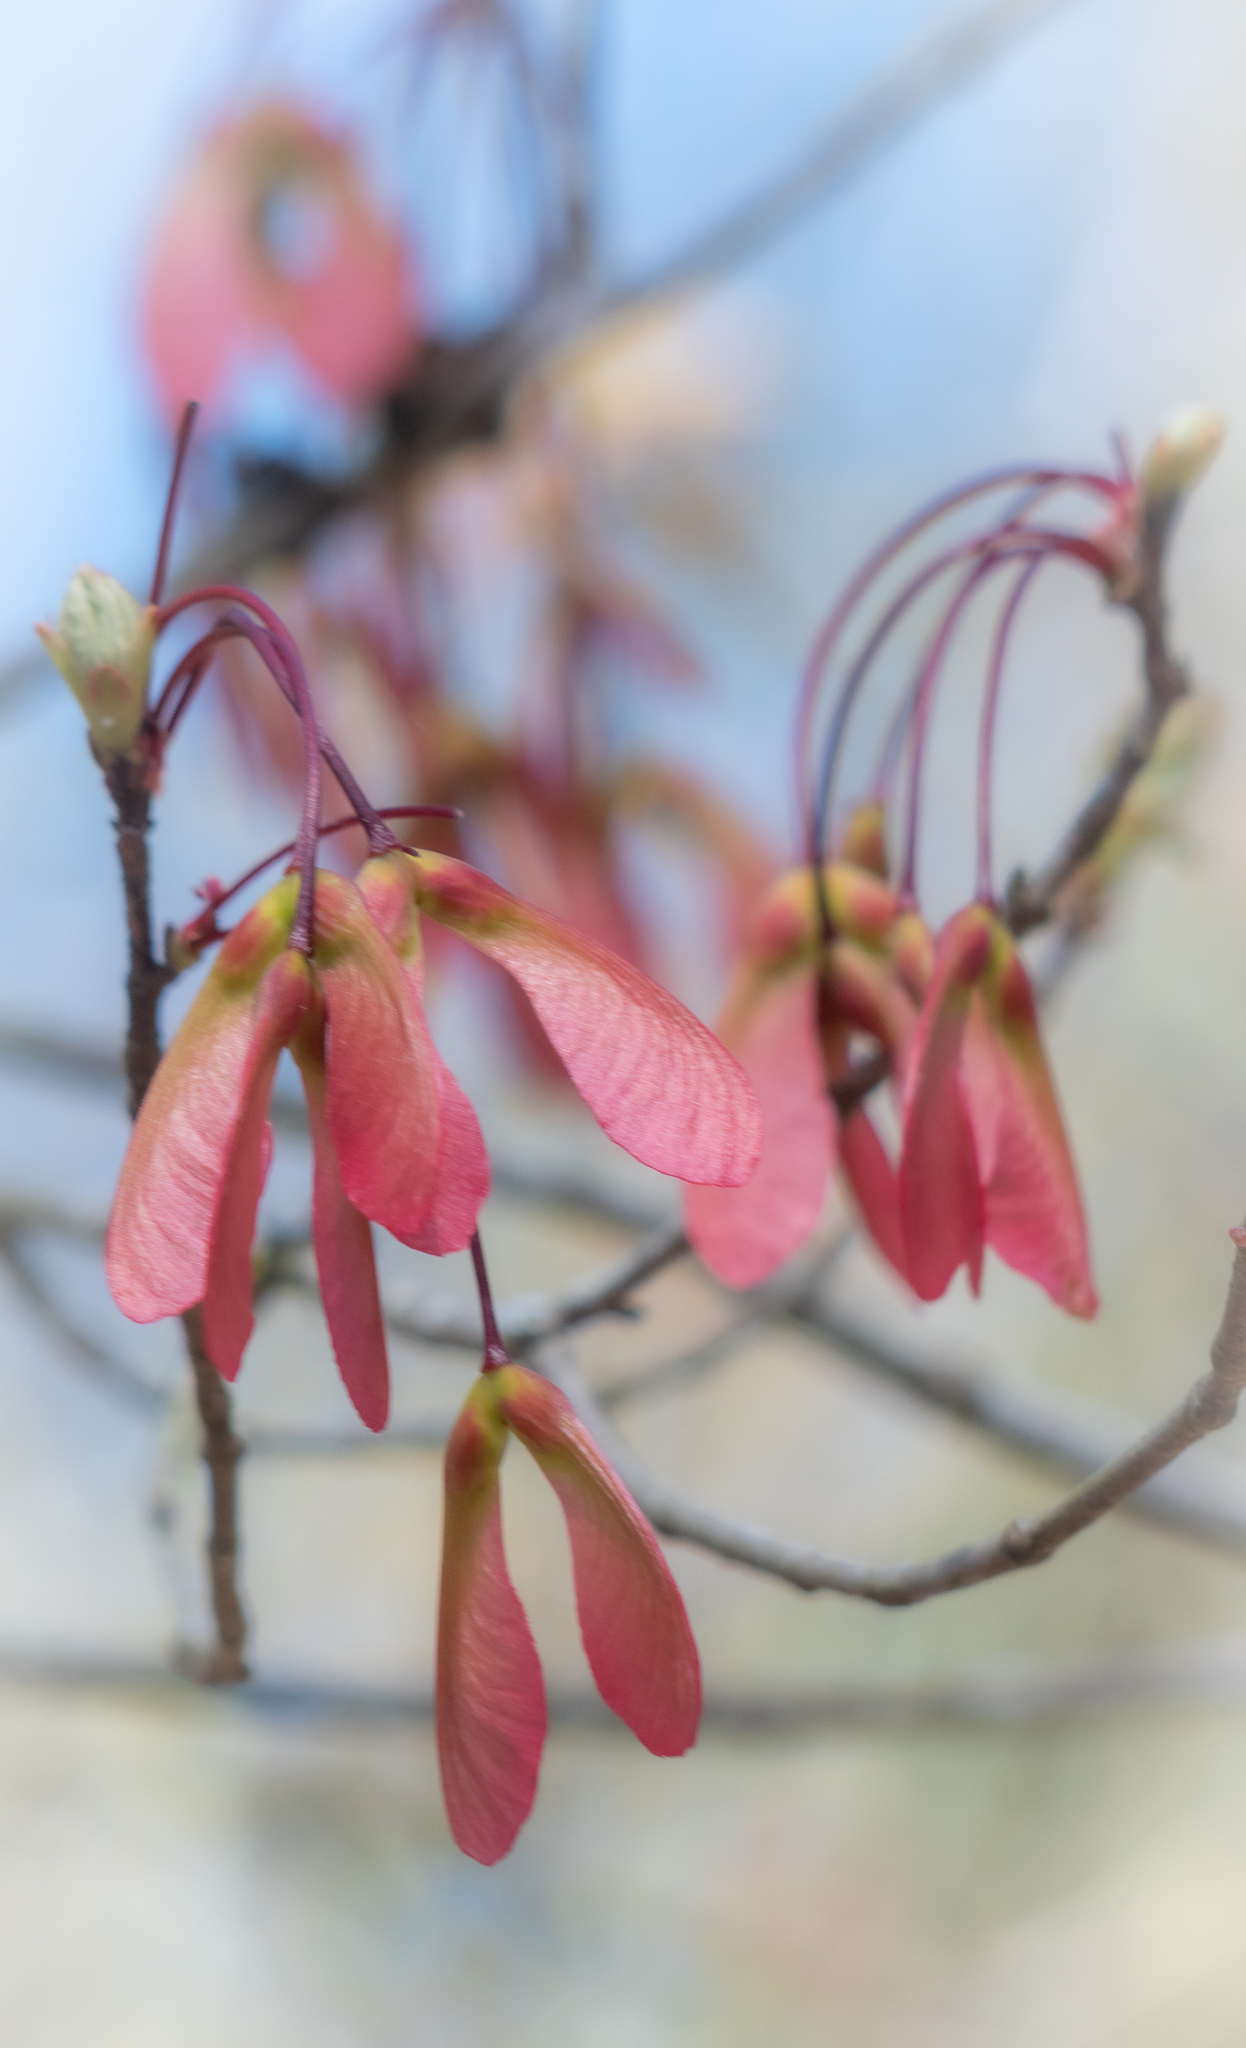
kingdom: Plantae
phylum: Tracheophyta
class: Magnoliopsida
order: Sapindales
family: Sapindaceae
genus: Acer
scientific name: Acer rubrum
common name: Red maple
